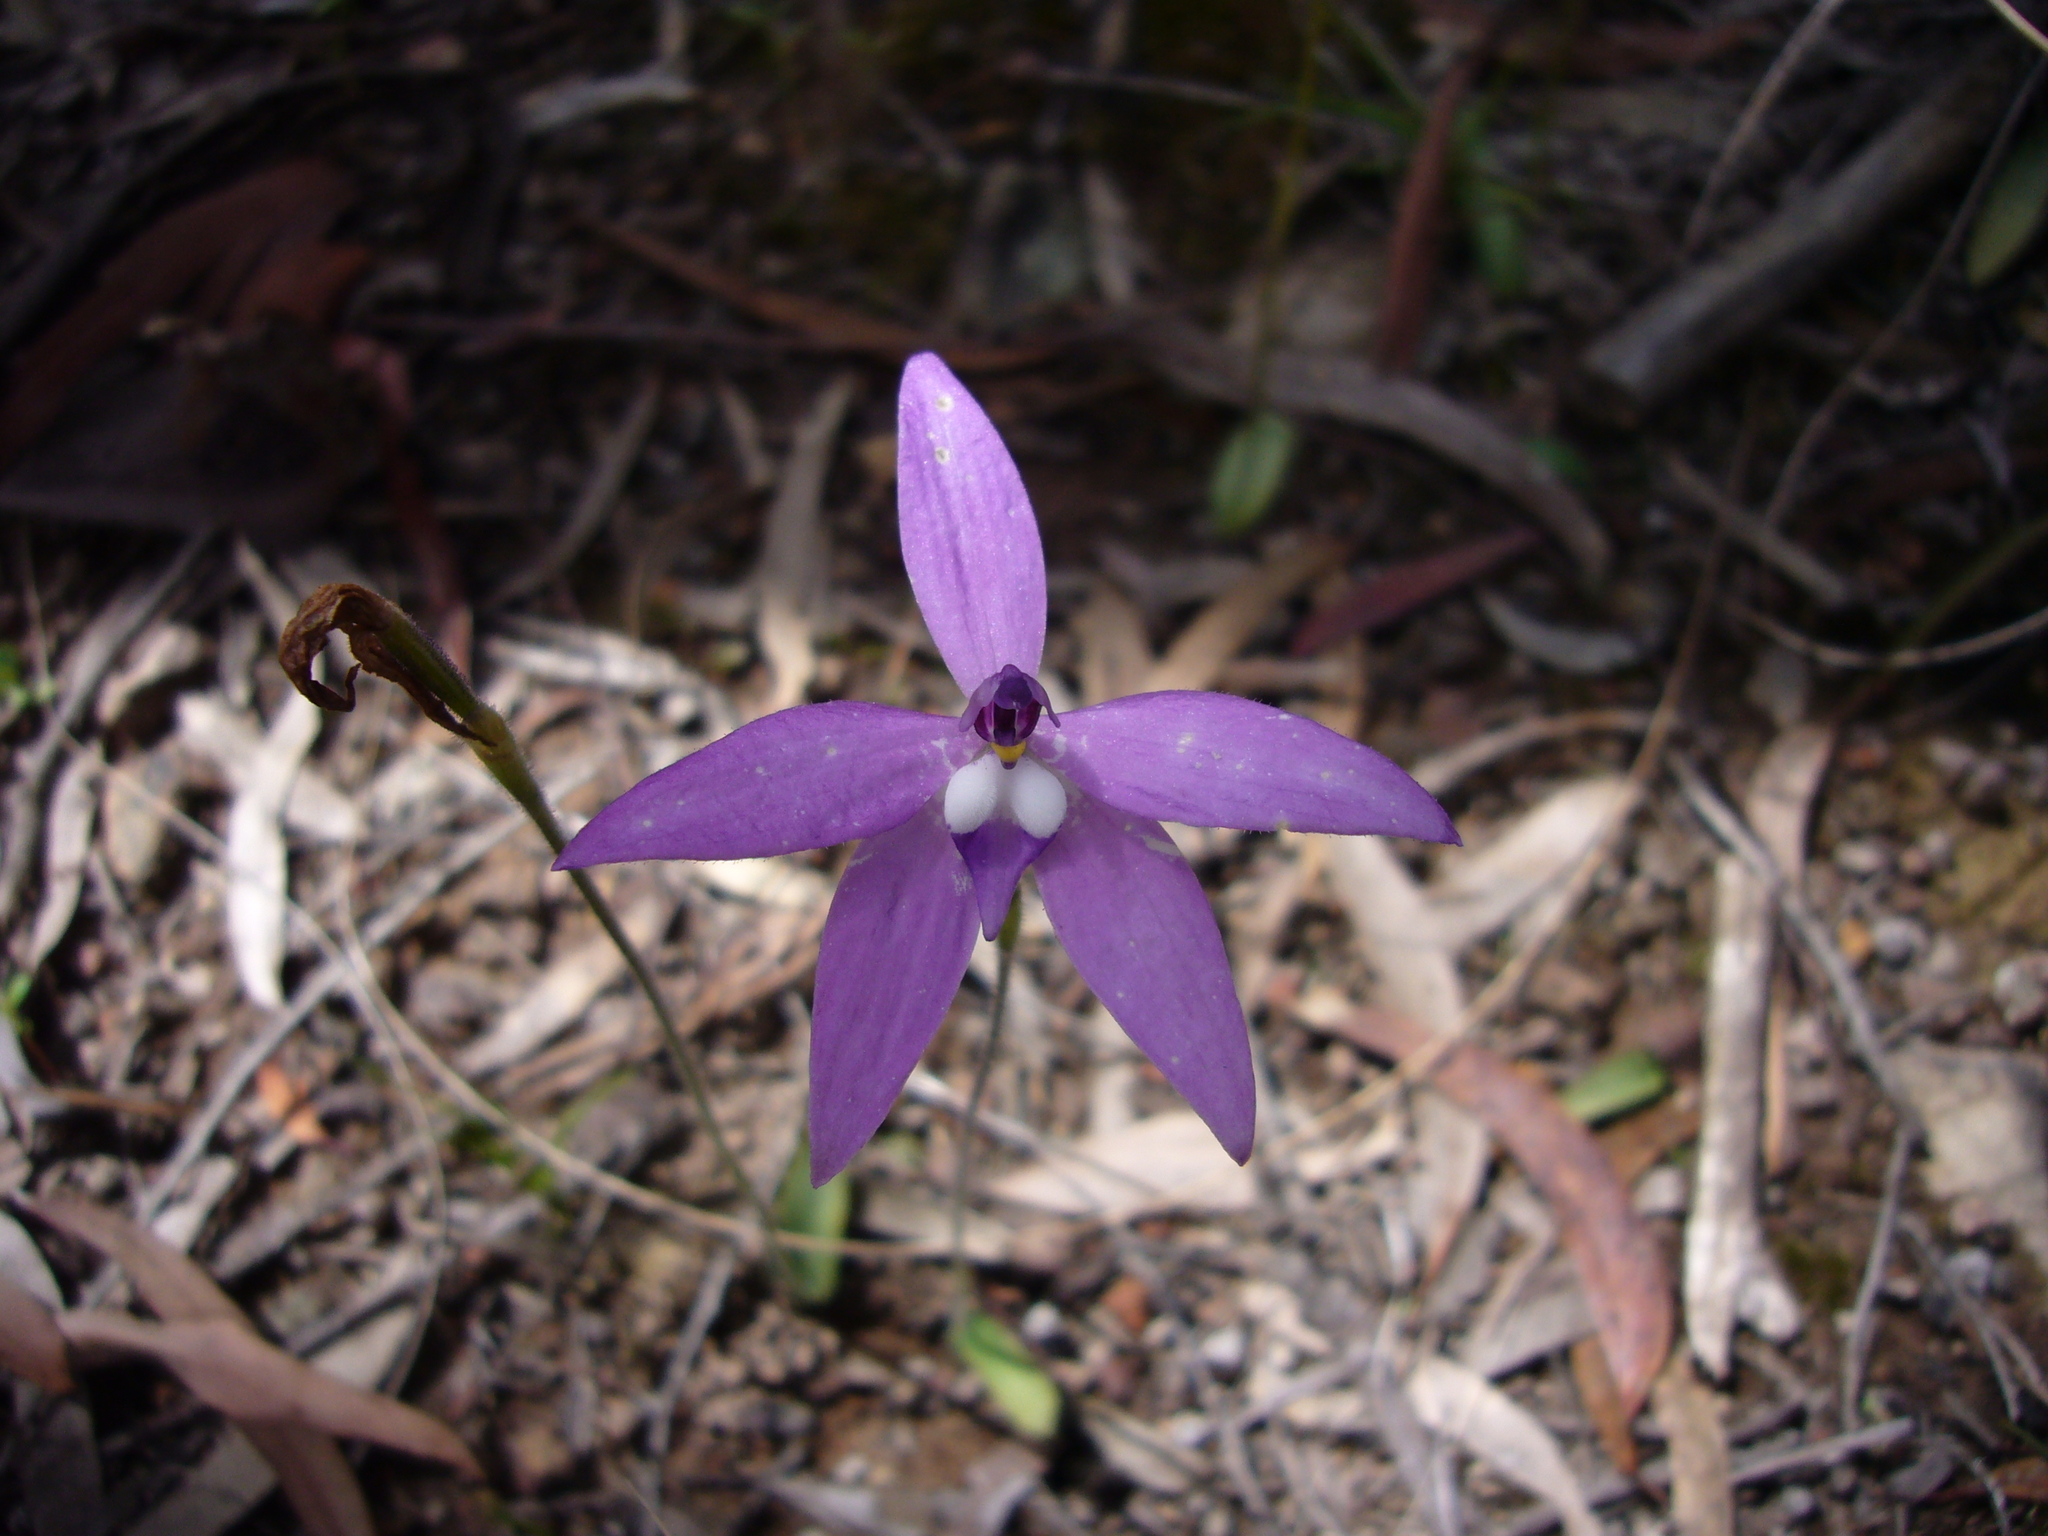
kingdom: Plantae
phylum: Tracheophyta
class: Liliopsida
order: Asparagales
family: Orchidaceae
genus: Caladenia
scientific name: Caladenia major
